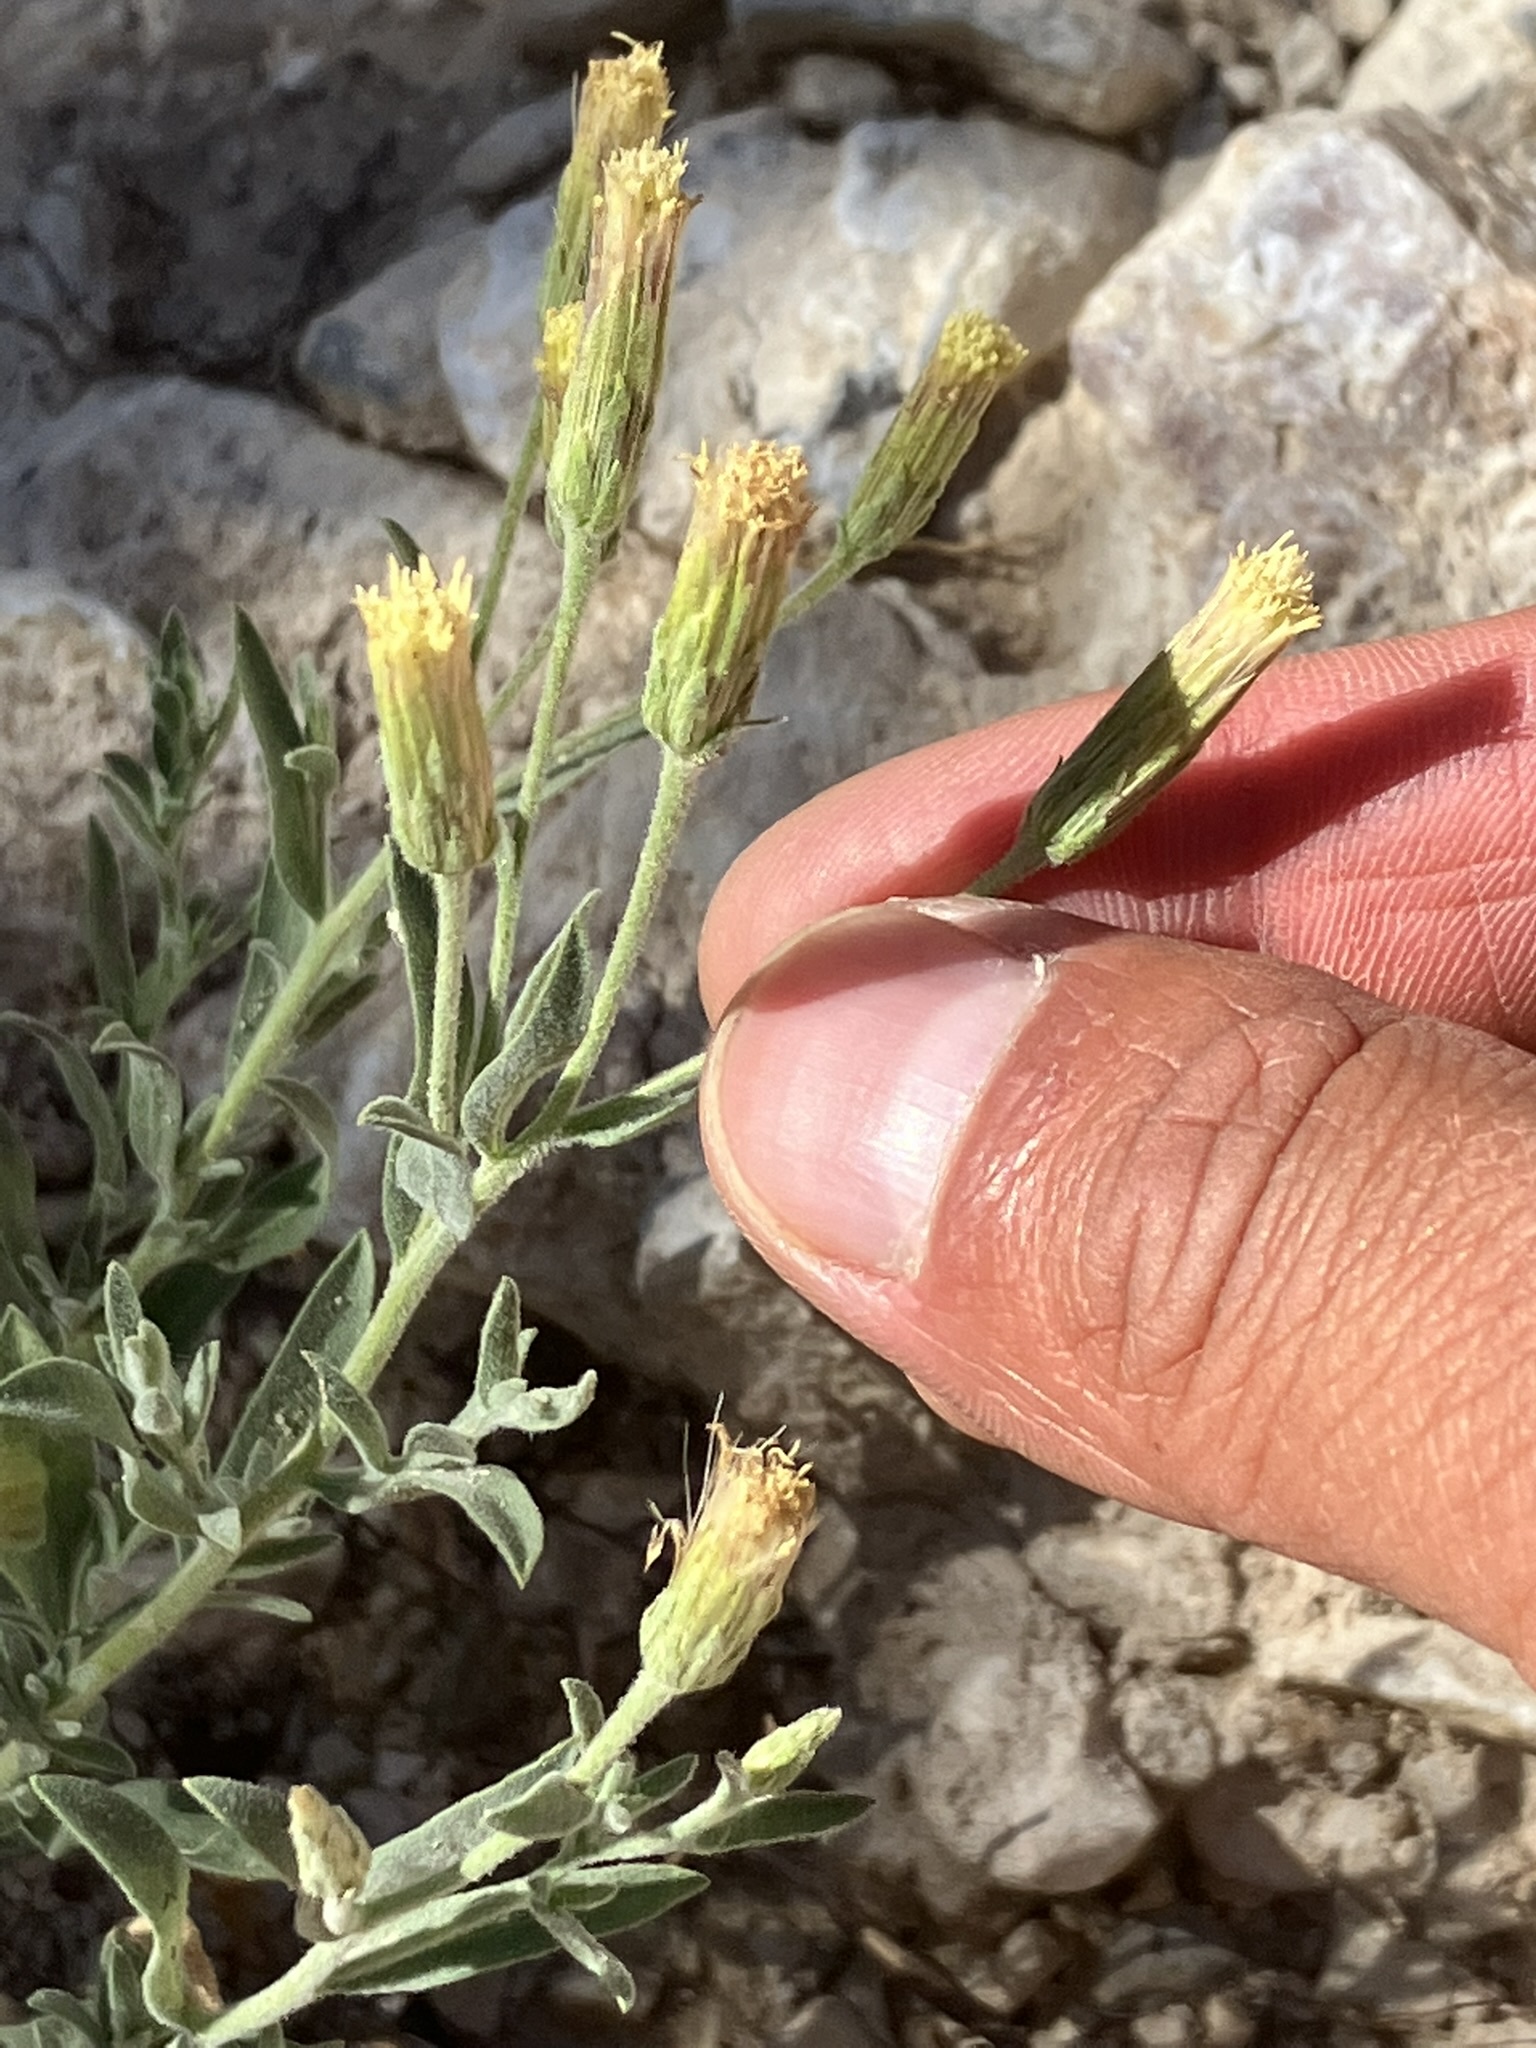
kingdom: Plantae
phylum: Tracheophyta
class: Magnoliopsida
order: Asterales
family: Asteraceae
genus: Brickellia
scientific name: Brickellia oblongifolia
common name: Mojave brickellbush
